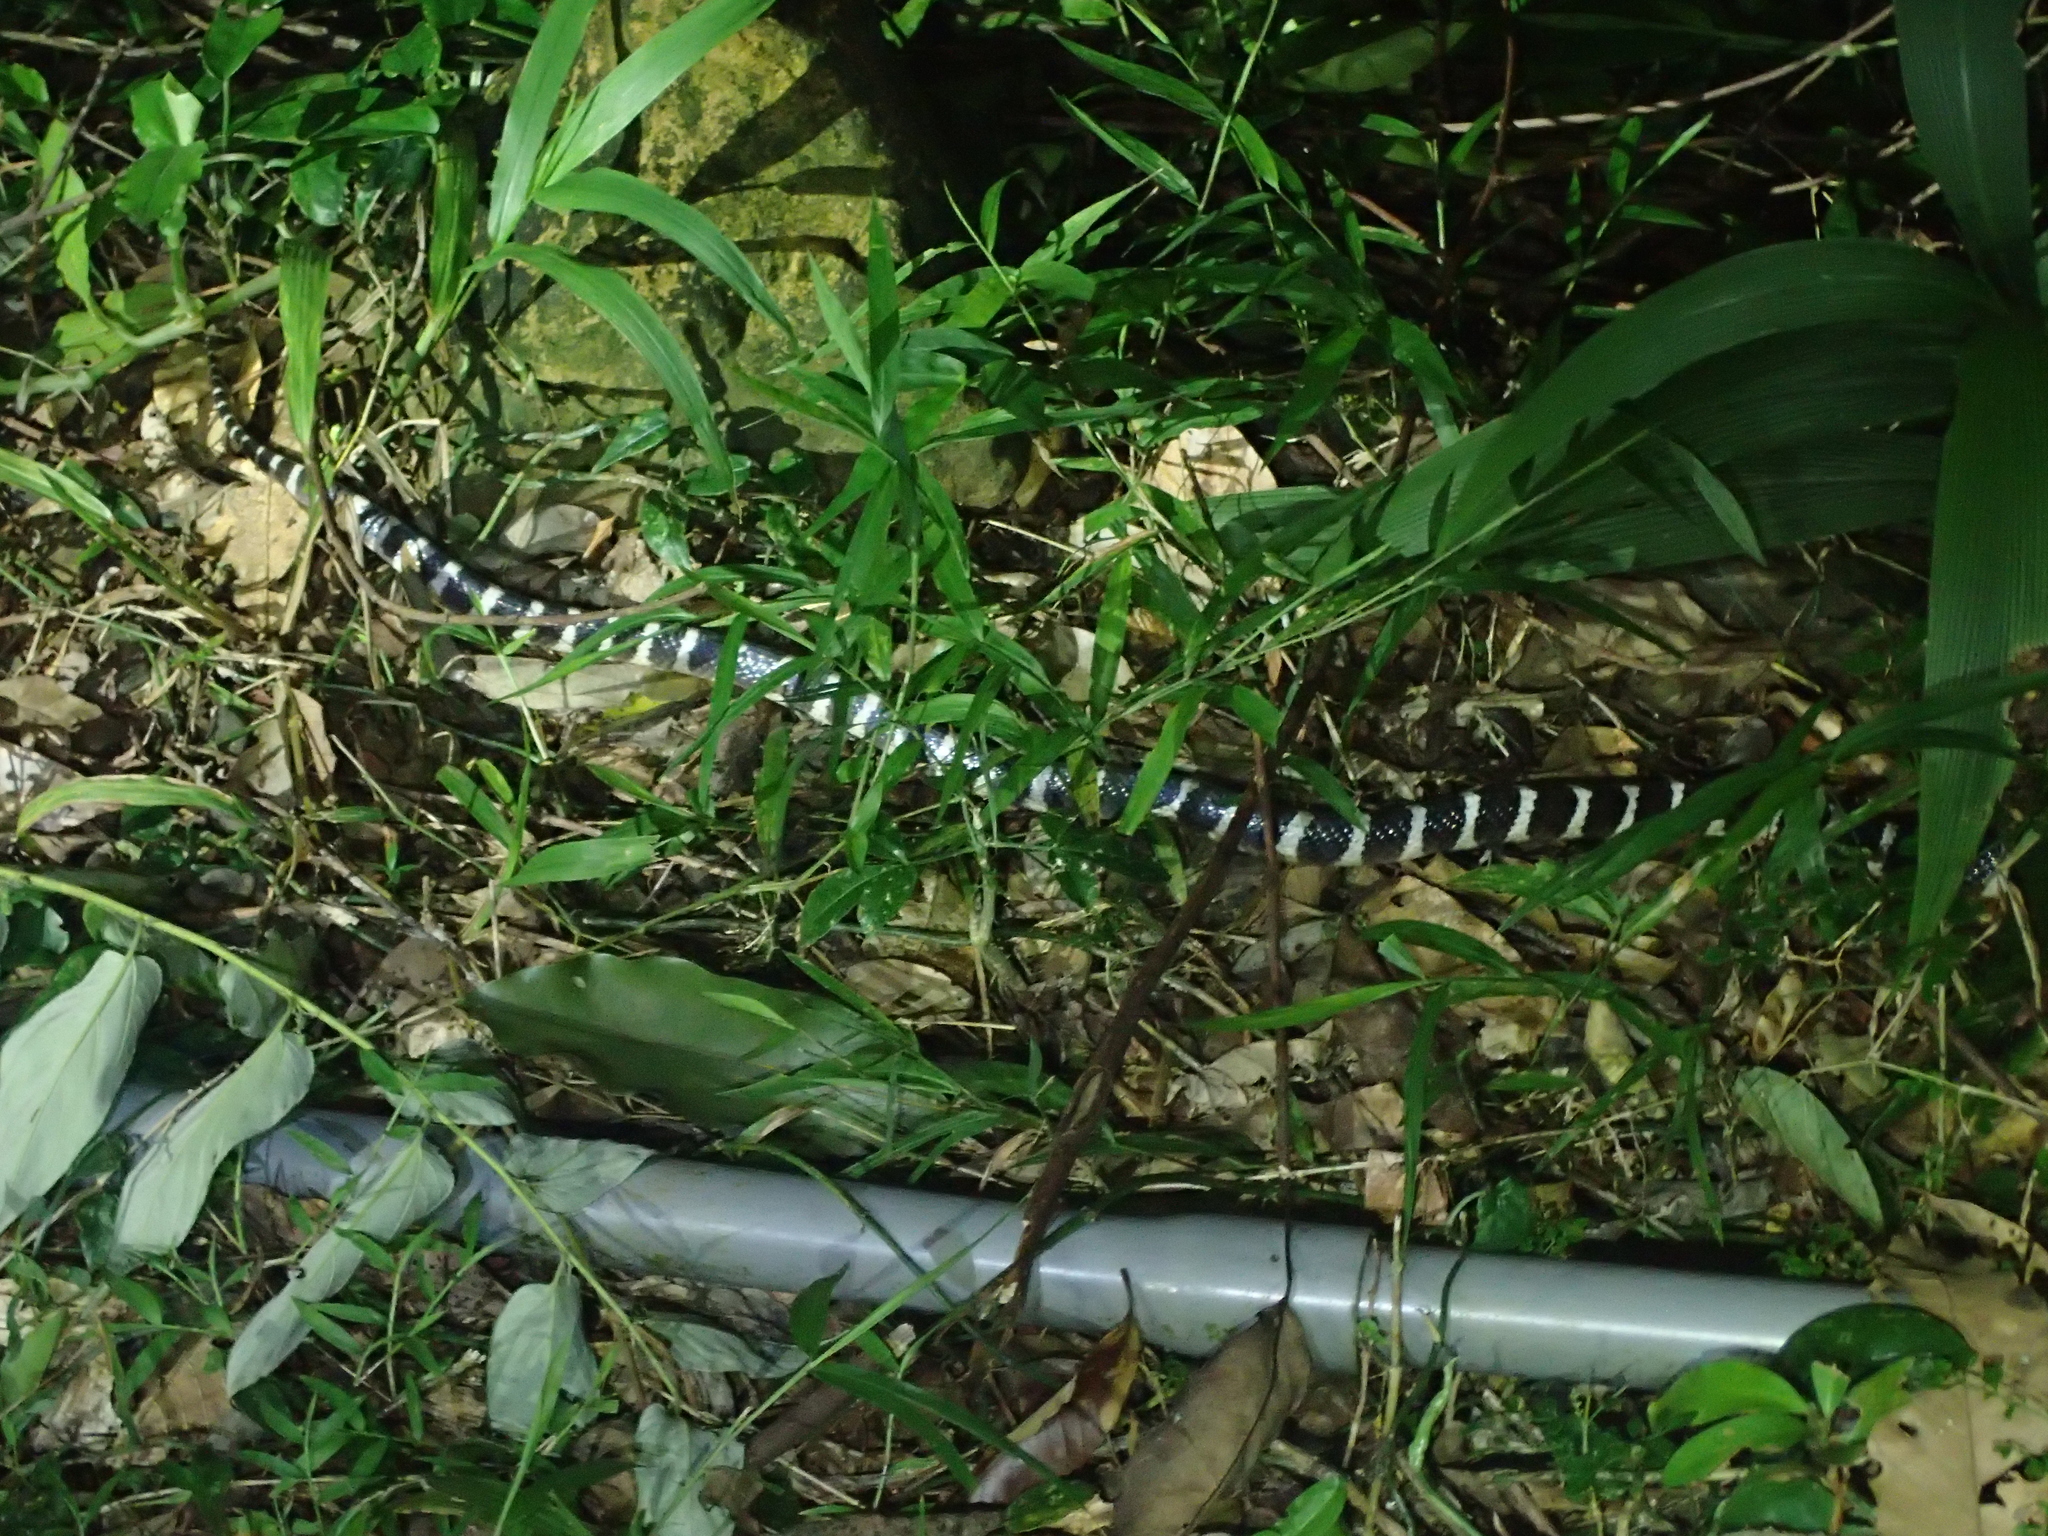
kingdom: Animalia
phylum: Chordata
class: Squamata
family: Elapidae
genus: Bungarus
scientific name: Bungarus multicinctus
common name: Many-banded krait
